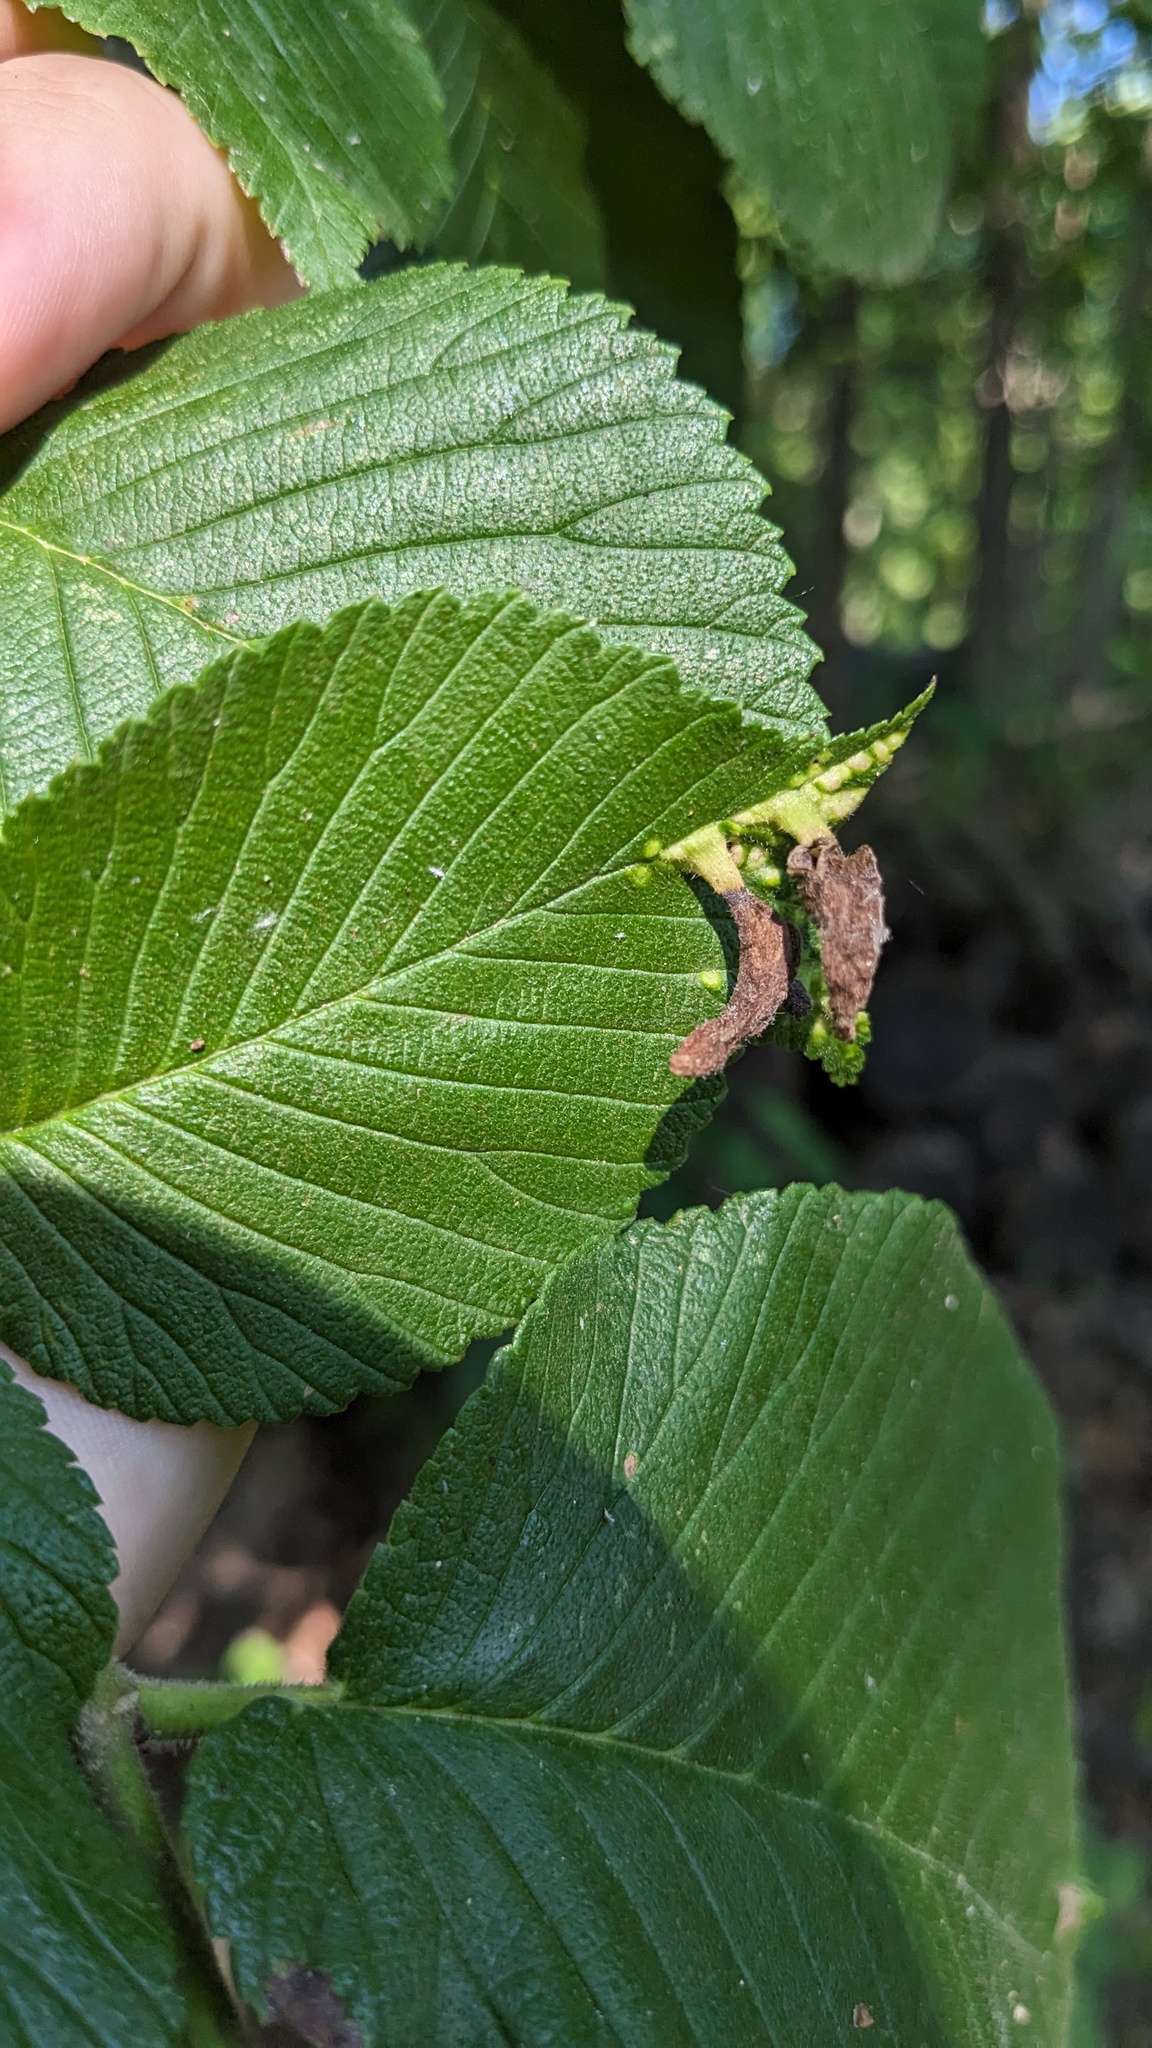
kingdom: Animalia
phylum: Arthropoda
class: Insecta
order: Hemiptera
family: Aphididae
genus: Tetraneura
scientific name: Tetraneura nigriabdominalis
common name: Aphid
